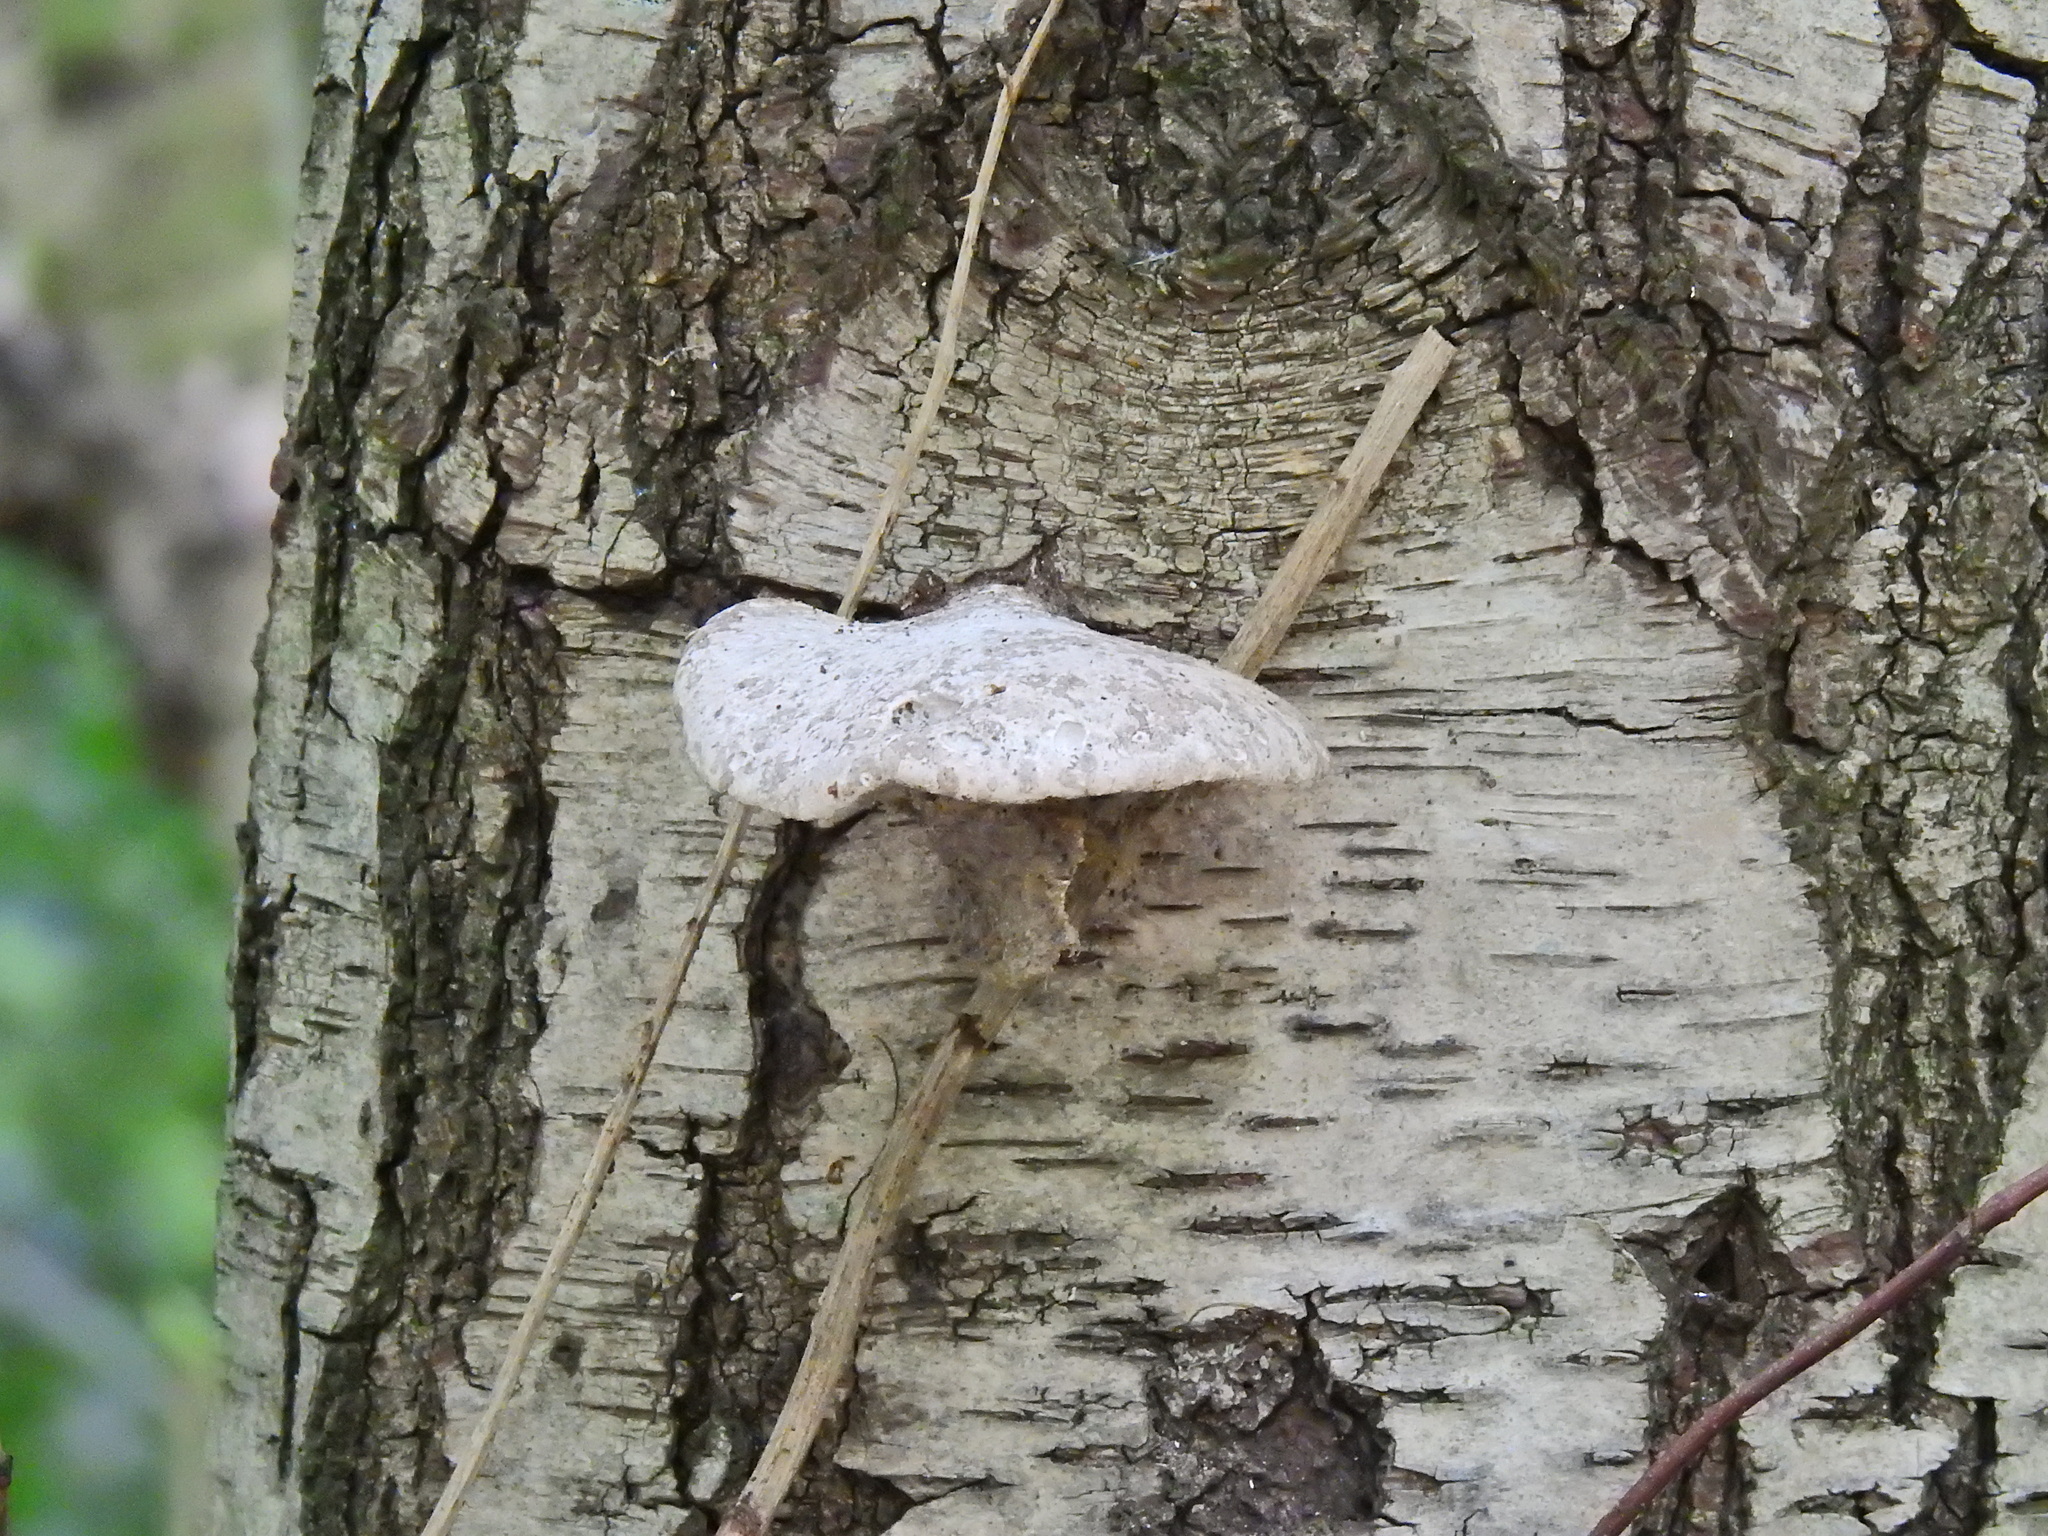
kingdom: Fungi
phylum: Basidiomycota
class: Agaricomycetes
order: Polyporales
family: Fomitopsidaceae
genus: Fomitopsis
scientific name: Fomitopsis betulina
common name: Birch polypore
